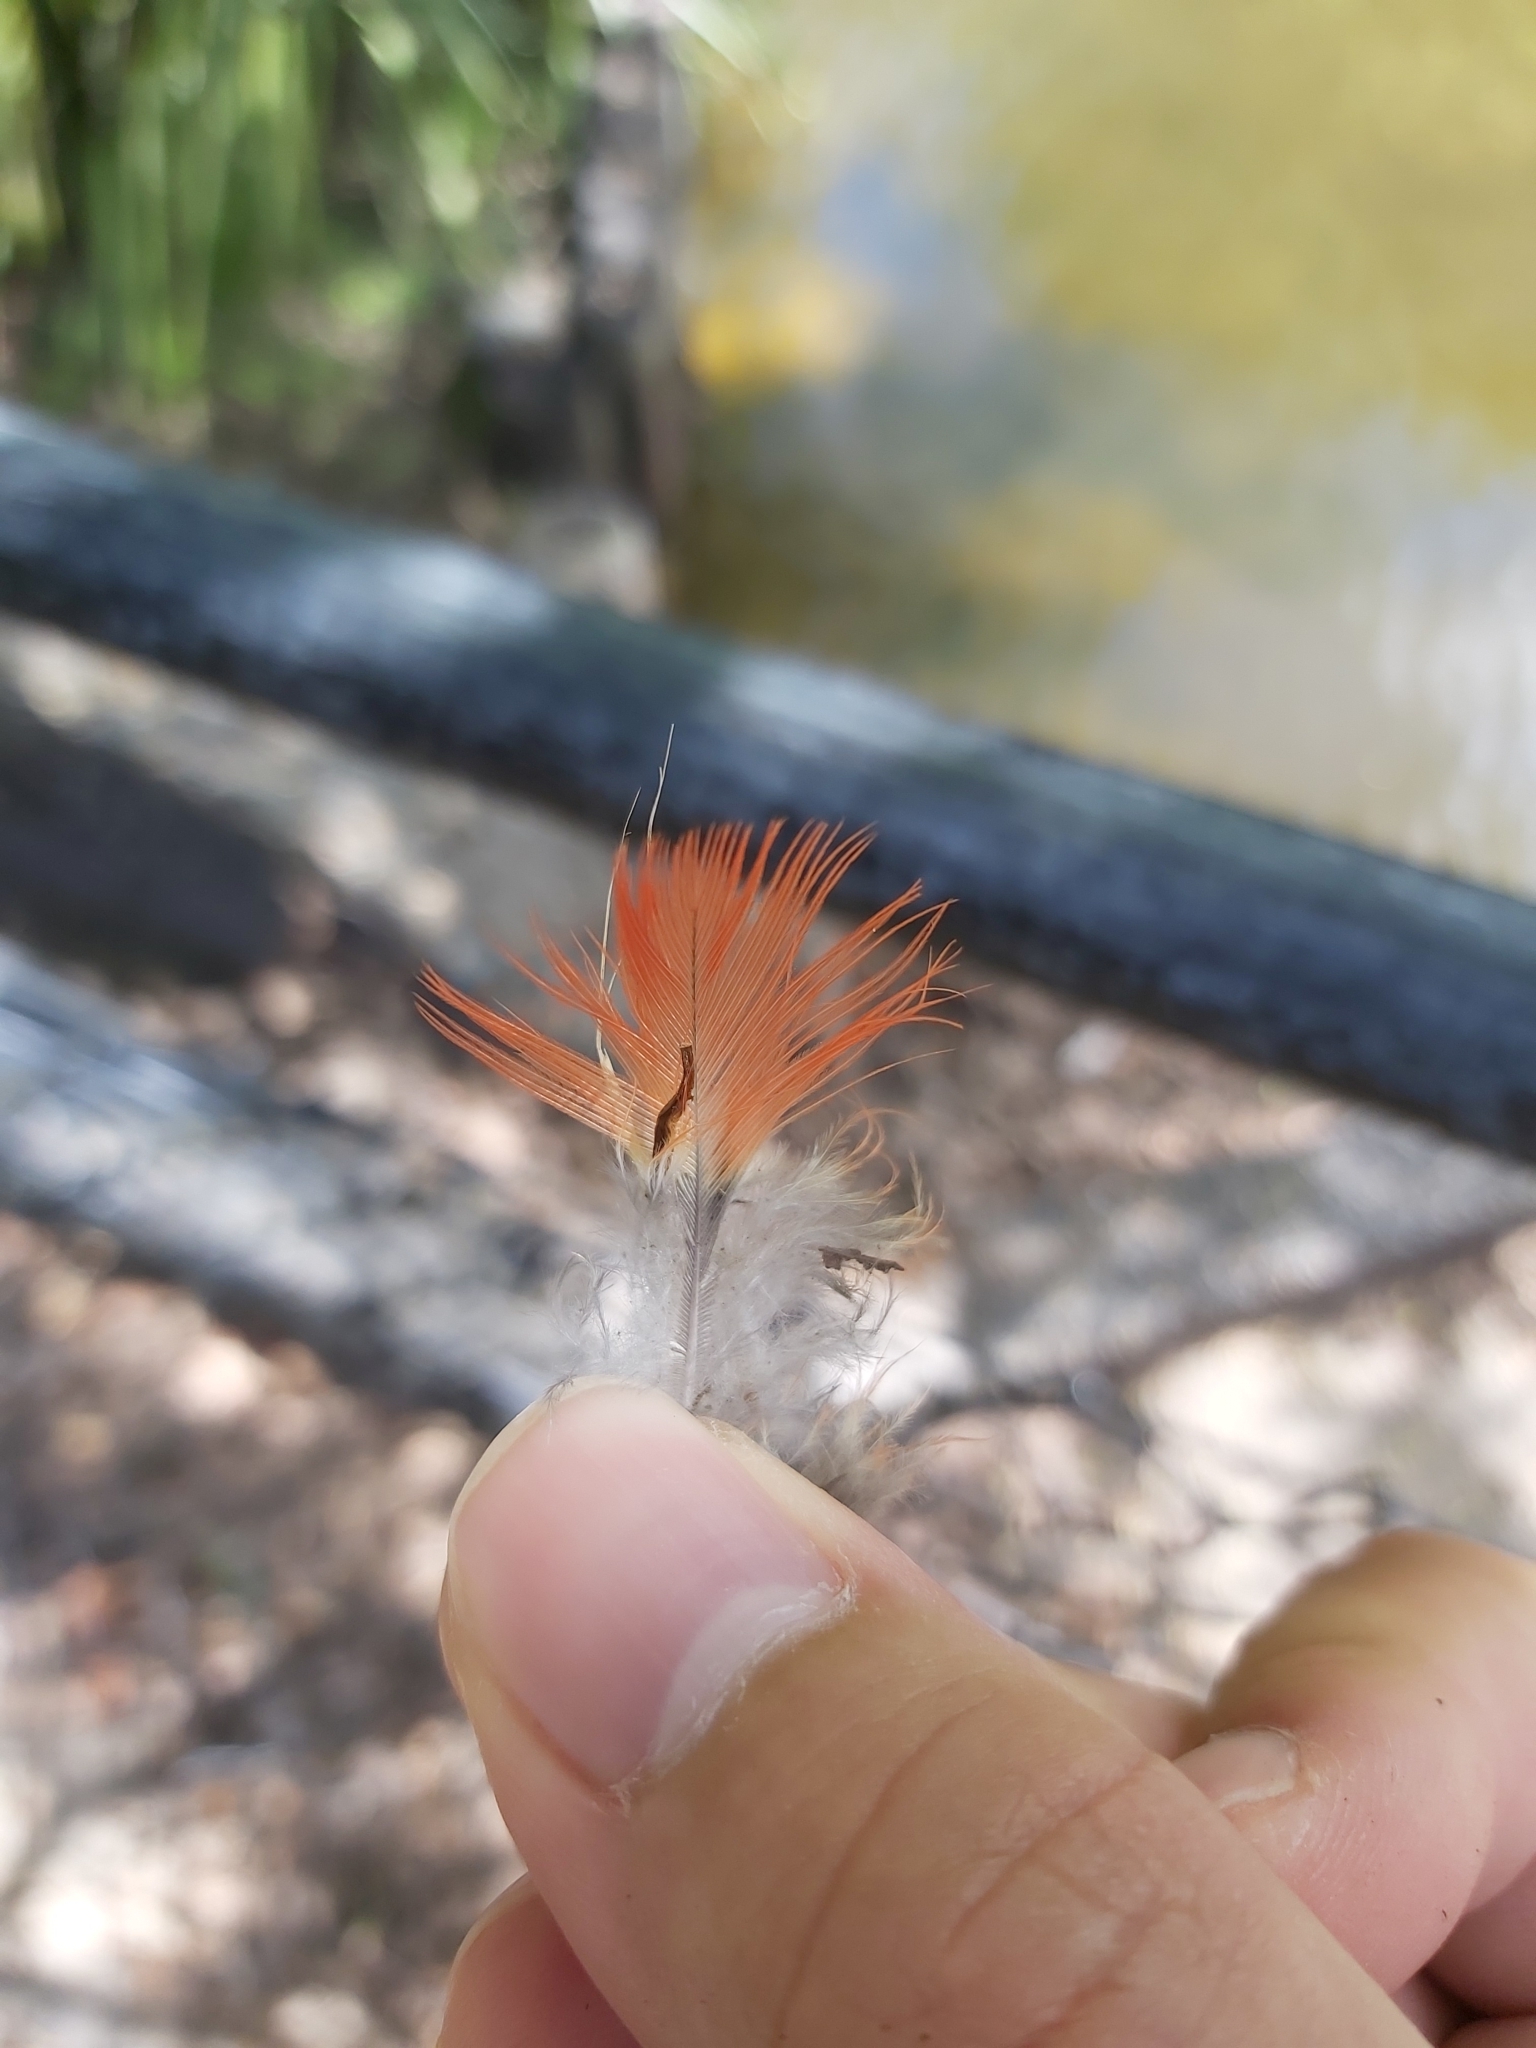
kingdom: Animalia
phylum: Chordata
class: Aves
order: Psittaciformes
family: Psittacidae
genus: Trichoglossus
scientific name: Trichoglossus haematodus
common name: Coconut lorikeet
